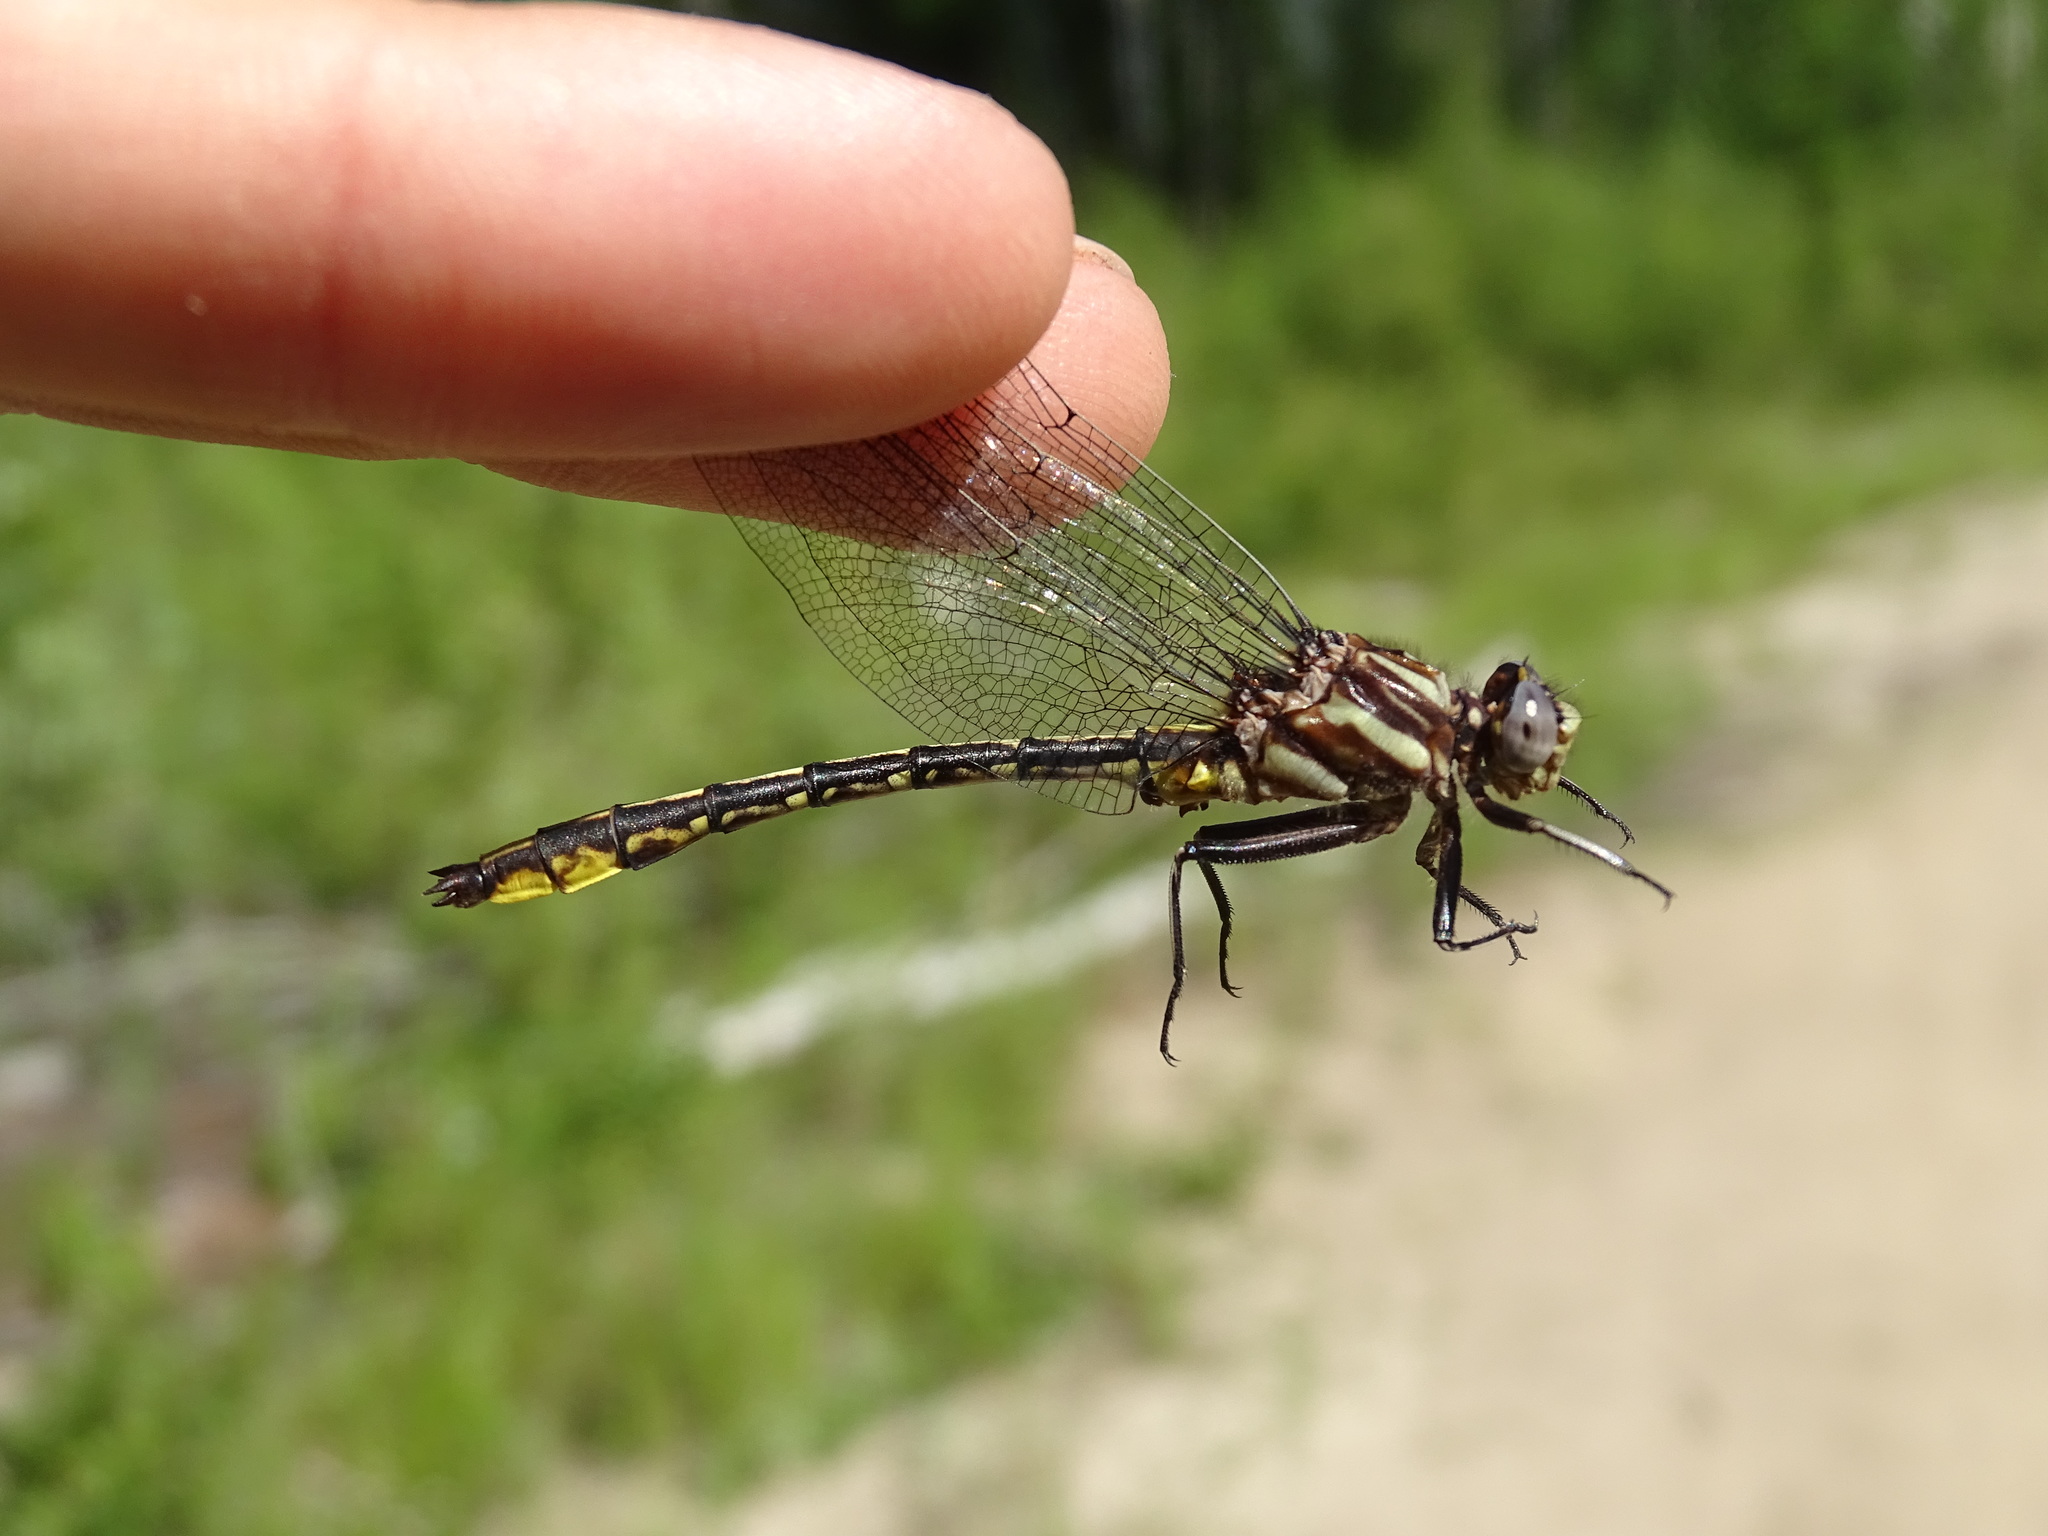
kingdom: Animalia
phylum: Arthropoda
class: Insecta
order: Odonata
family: Gomphidae
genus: Phanogomphus
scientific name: Phanogomphus exilis
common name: Lancet clubtail
